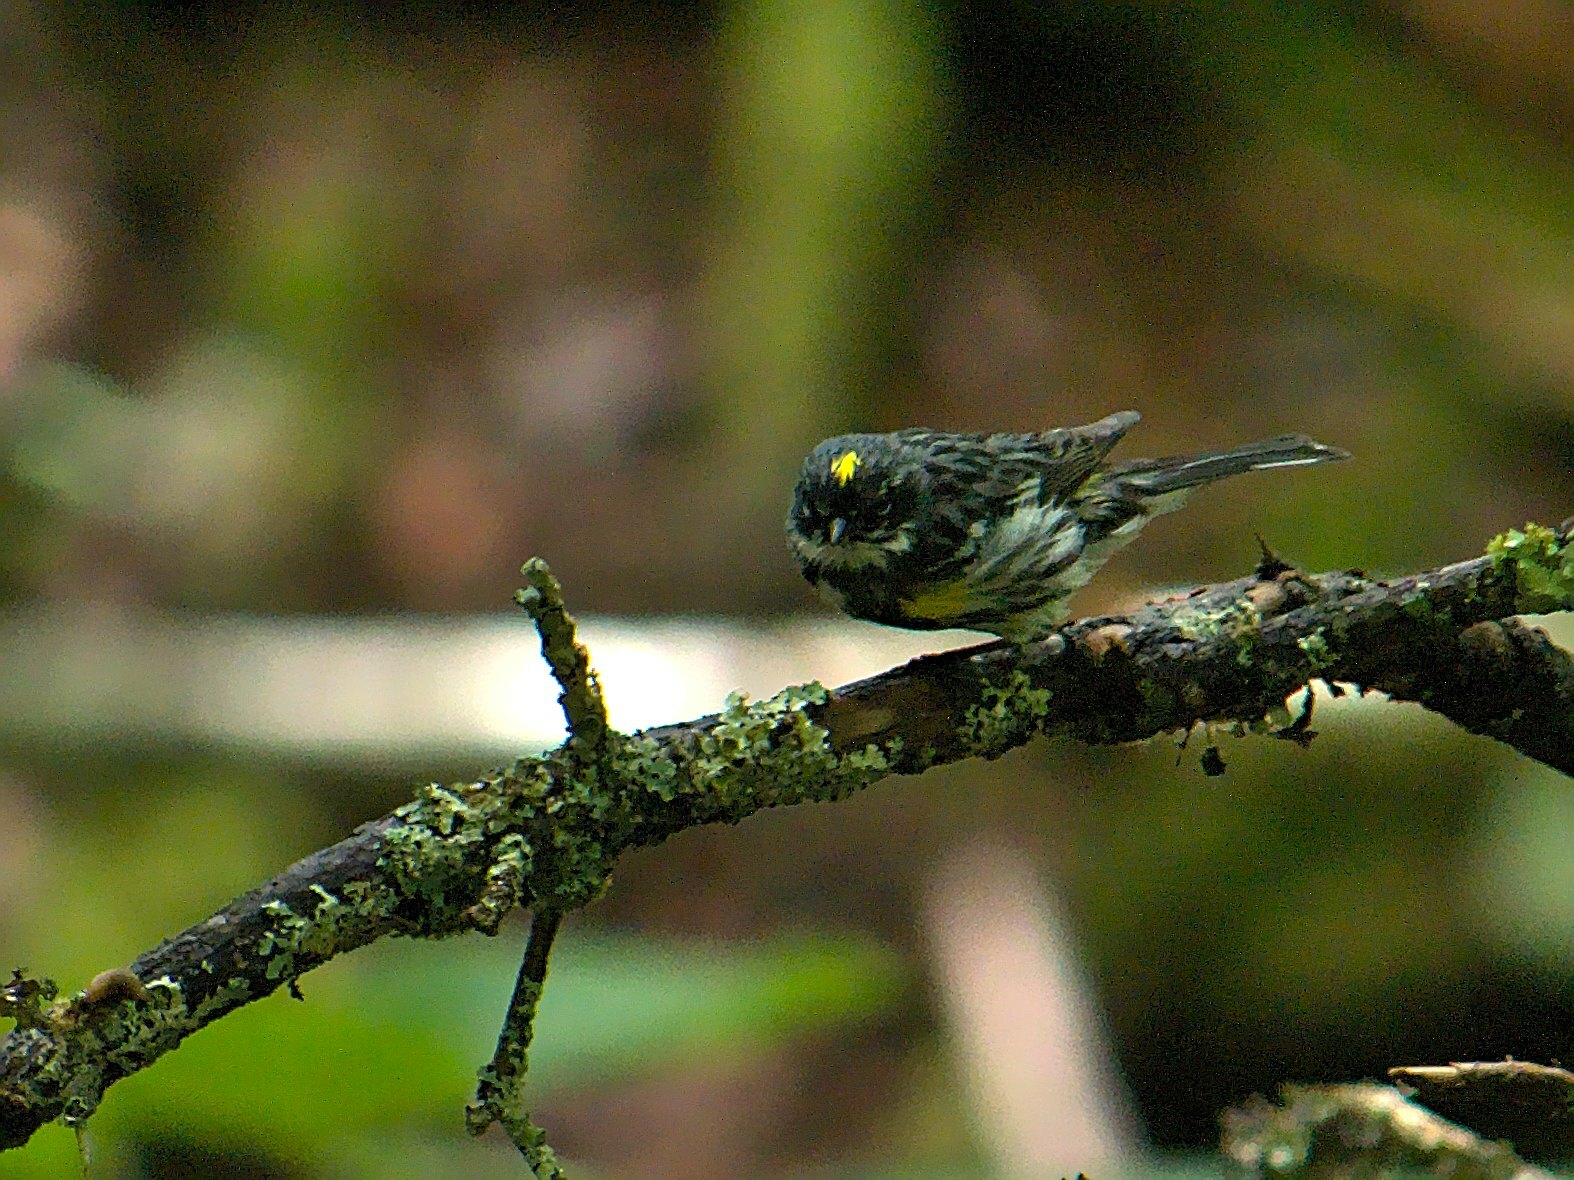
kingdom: Animalia
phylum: Chordata
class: Aves
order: Passeriformes
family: Parulidae
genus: Setophaga
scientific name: Setophaga coronata
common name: Myrtle warbler
